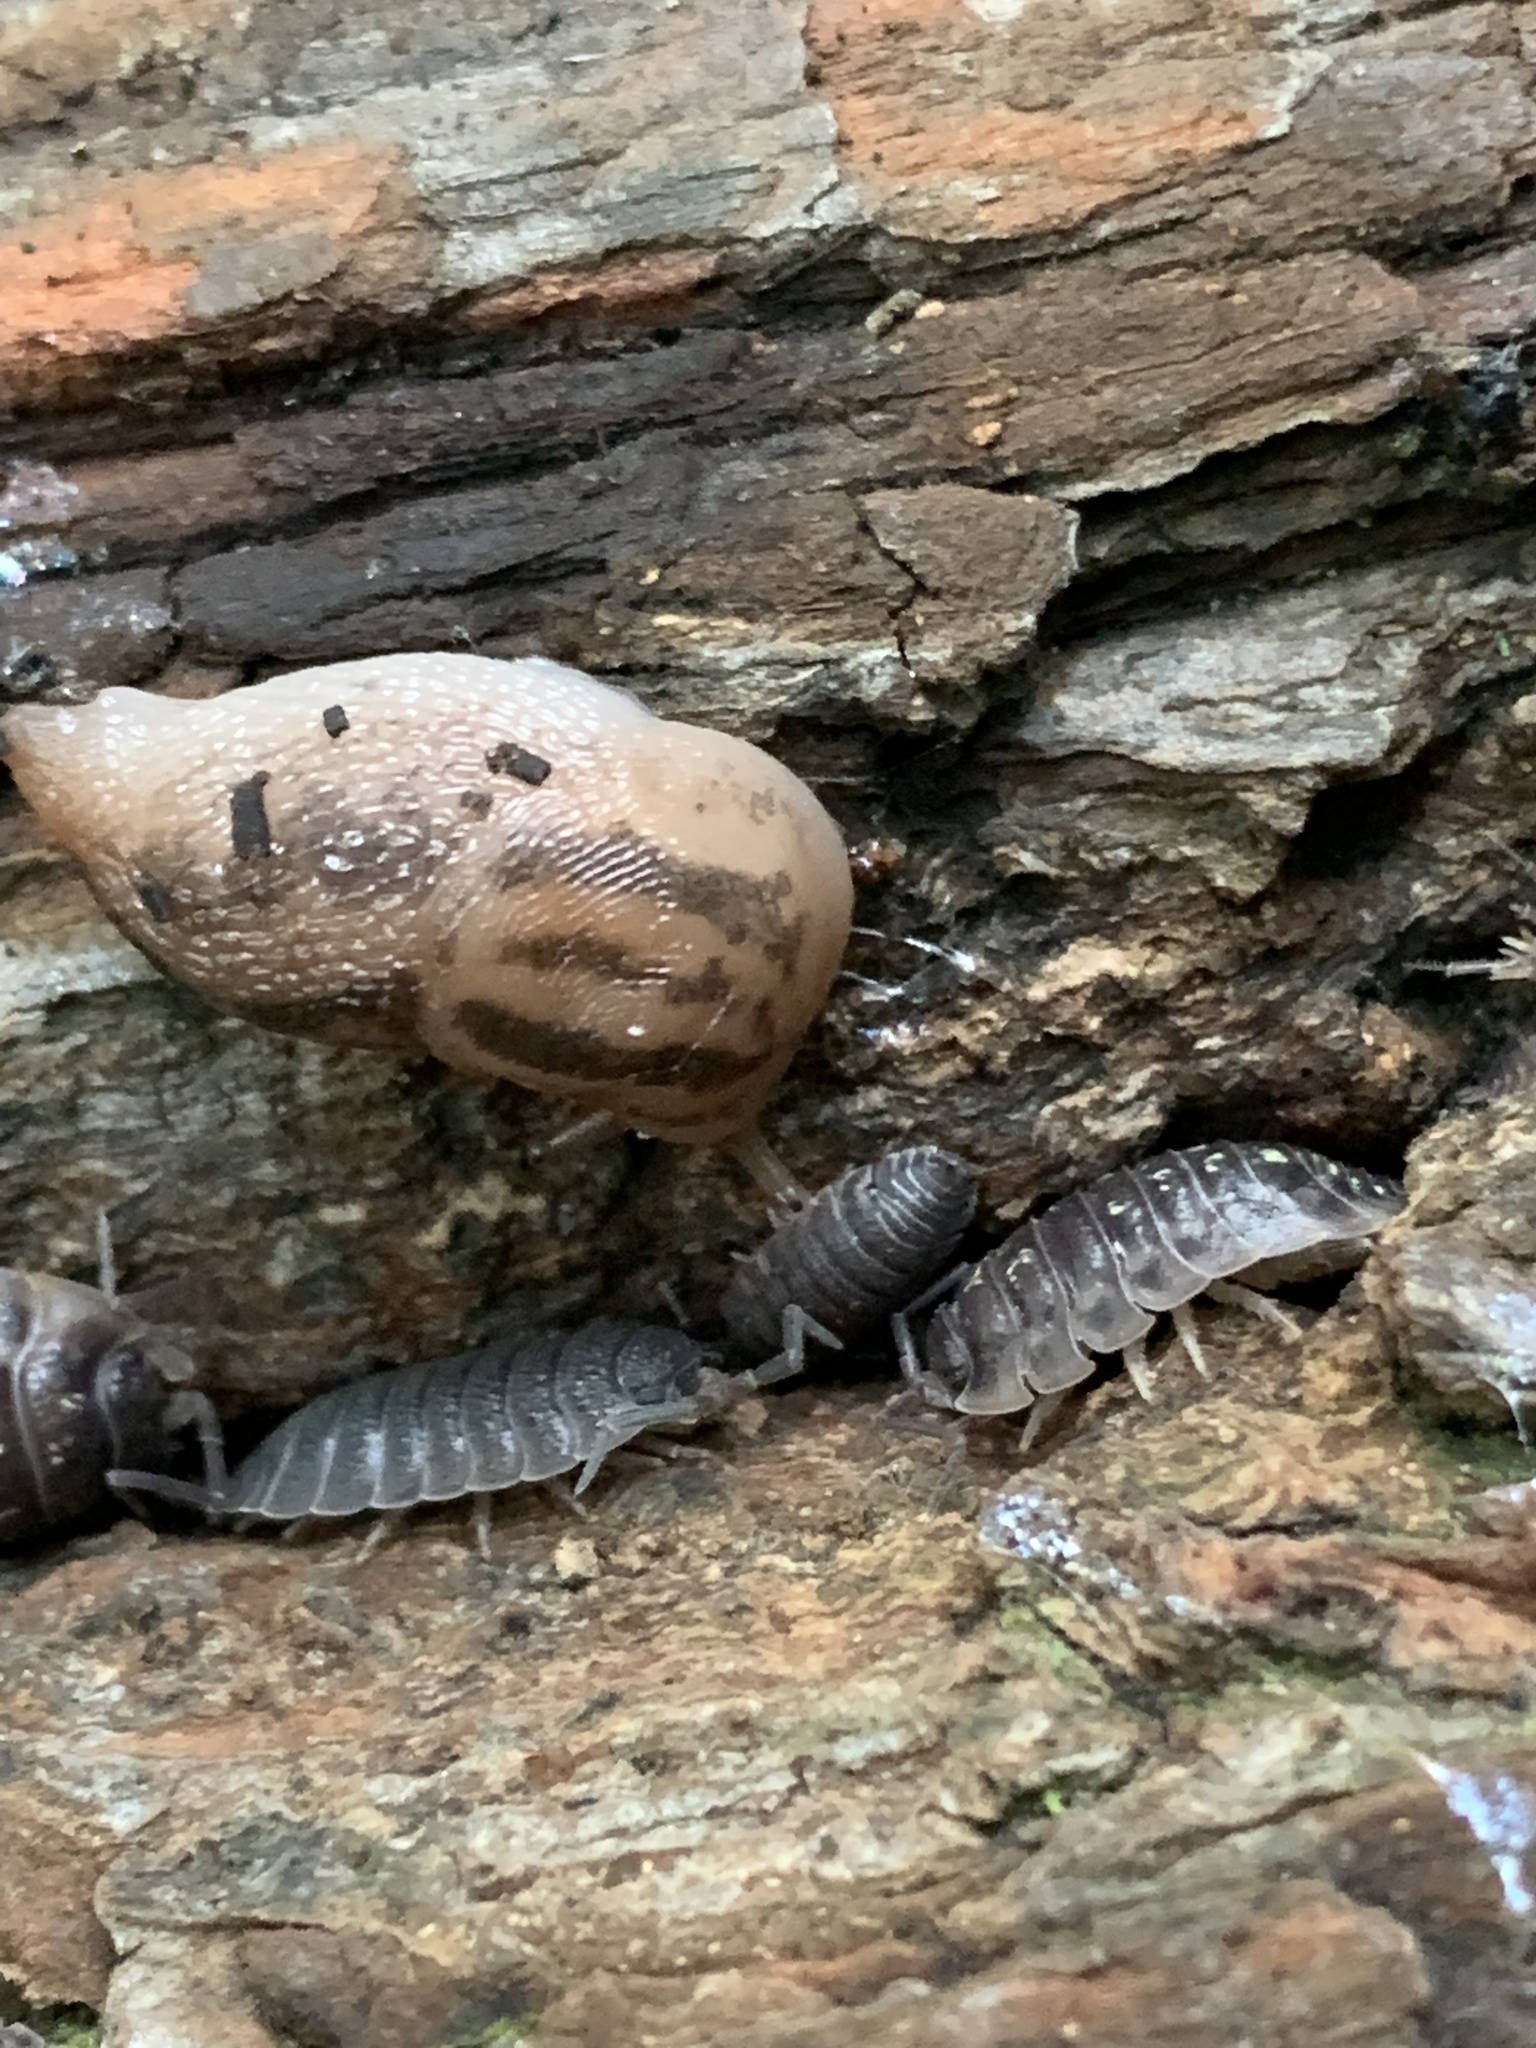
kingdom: Animalia
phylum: Mollusca
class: Gastropoda
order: Stylommatophora
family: Limacidae
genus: Limax
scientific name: Limax maximus
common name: Great grey slug
